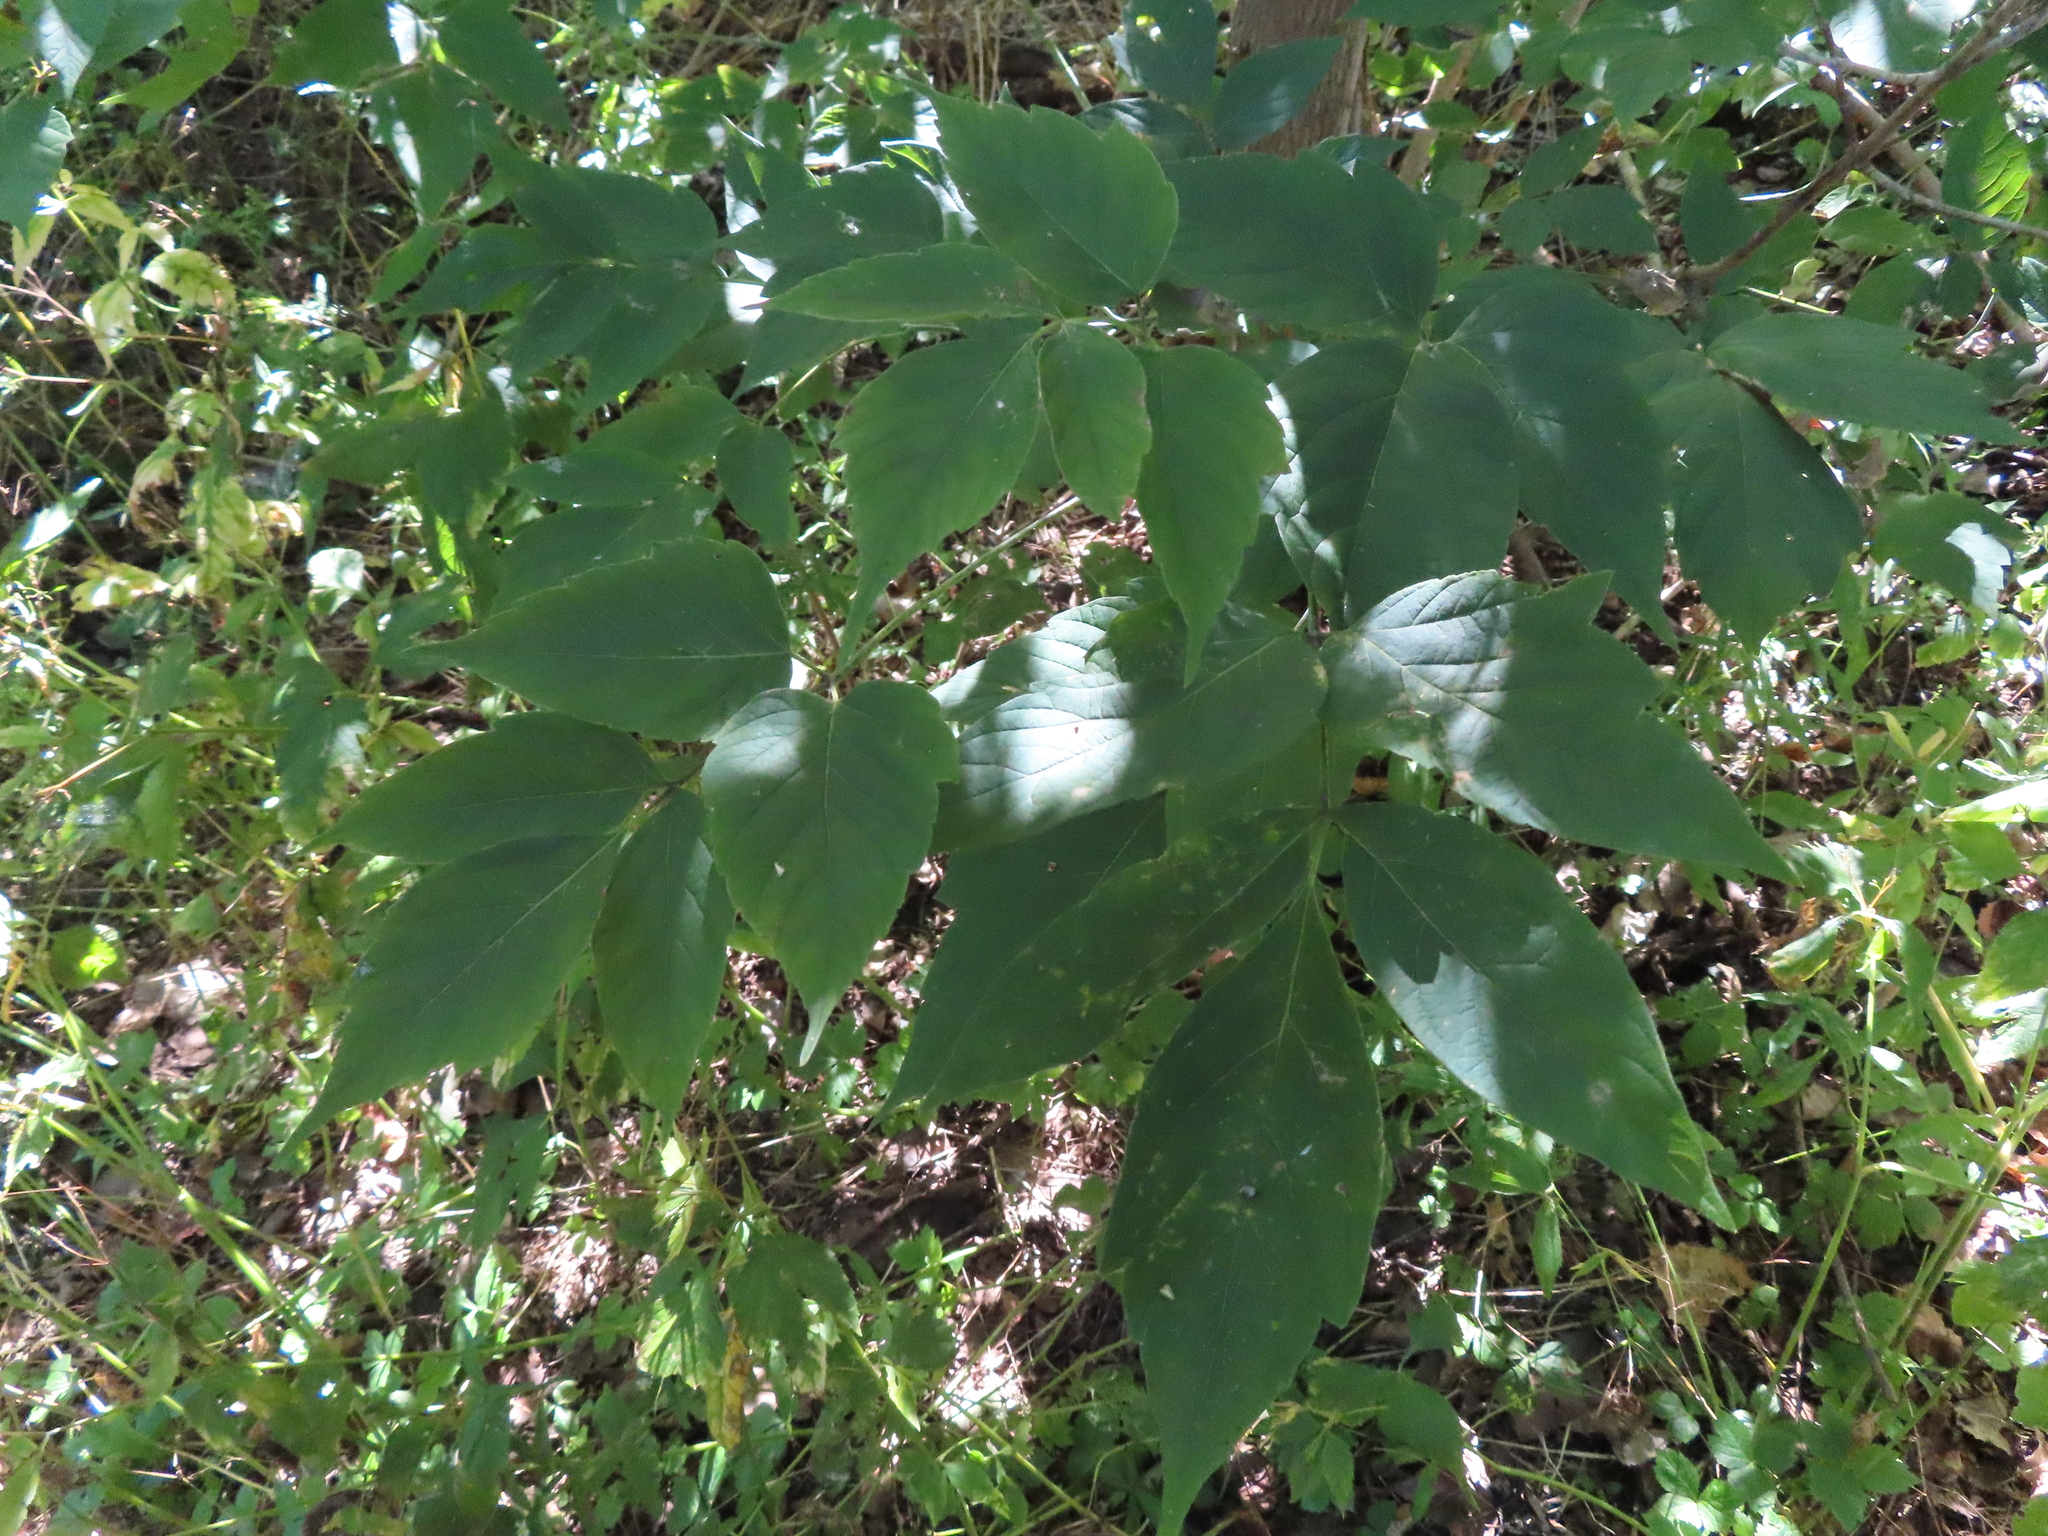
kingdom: Plantae
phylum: Tracheophyta
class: Magnoliopsida
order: Sapindales
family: Sapindaceae
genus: Acer
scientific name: Acer negundo
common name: Ashleaf maple
